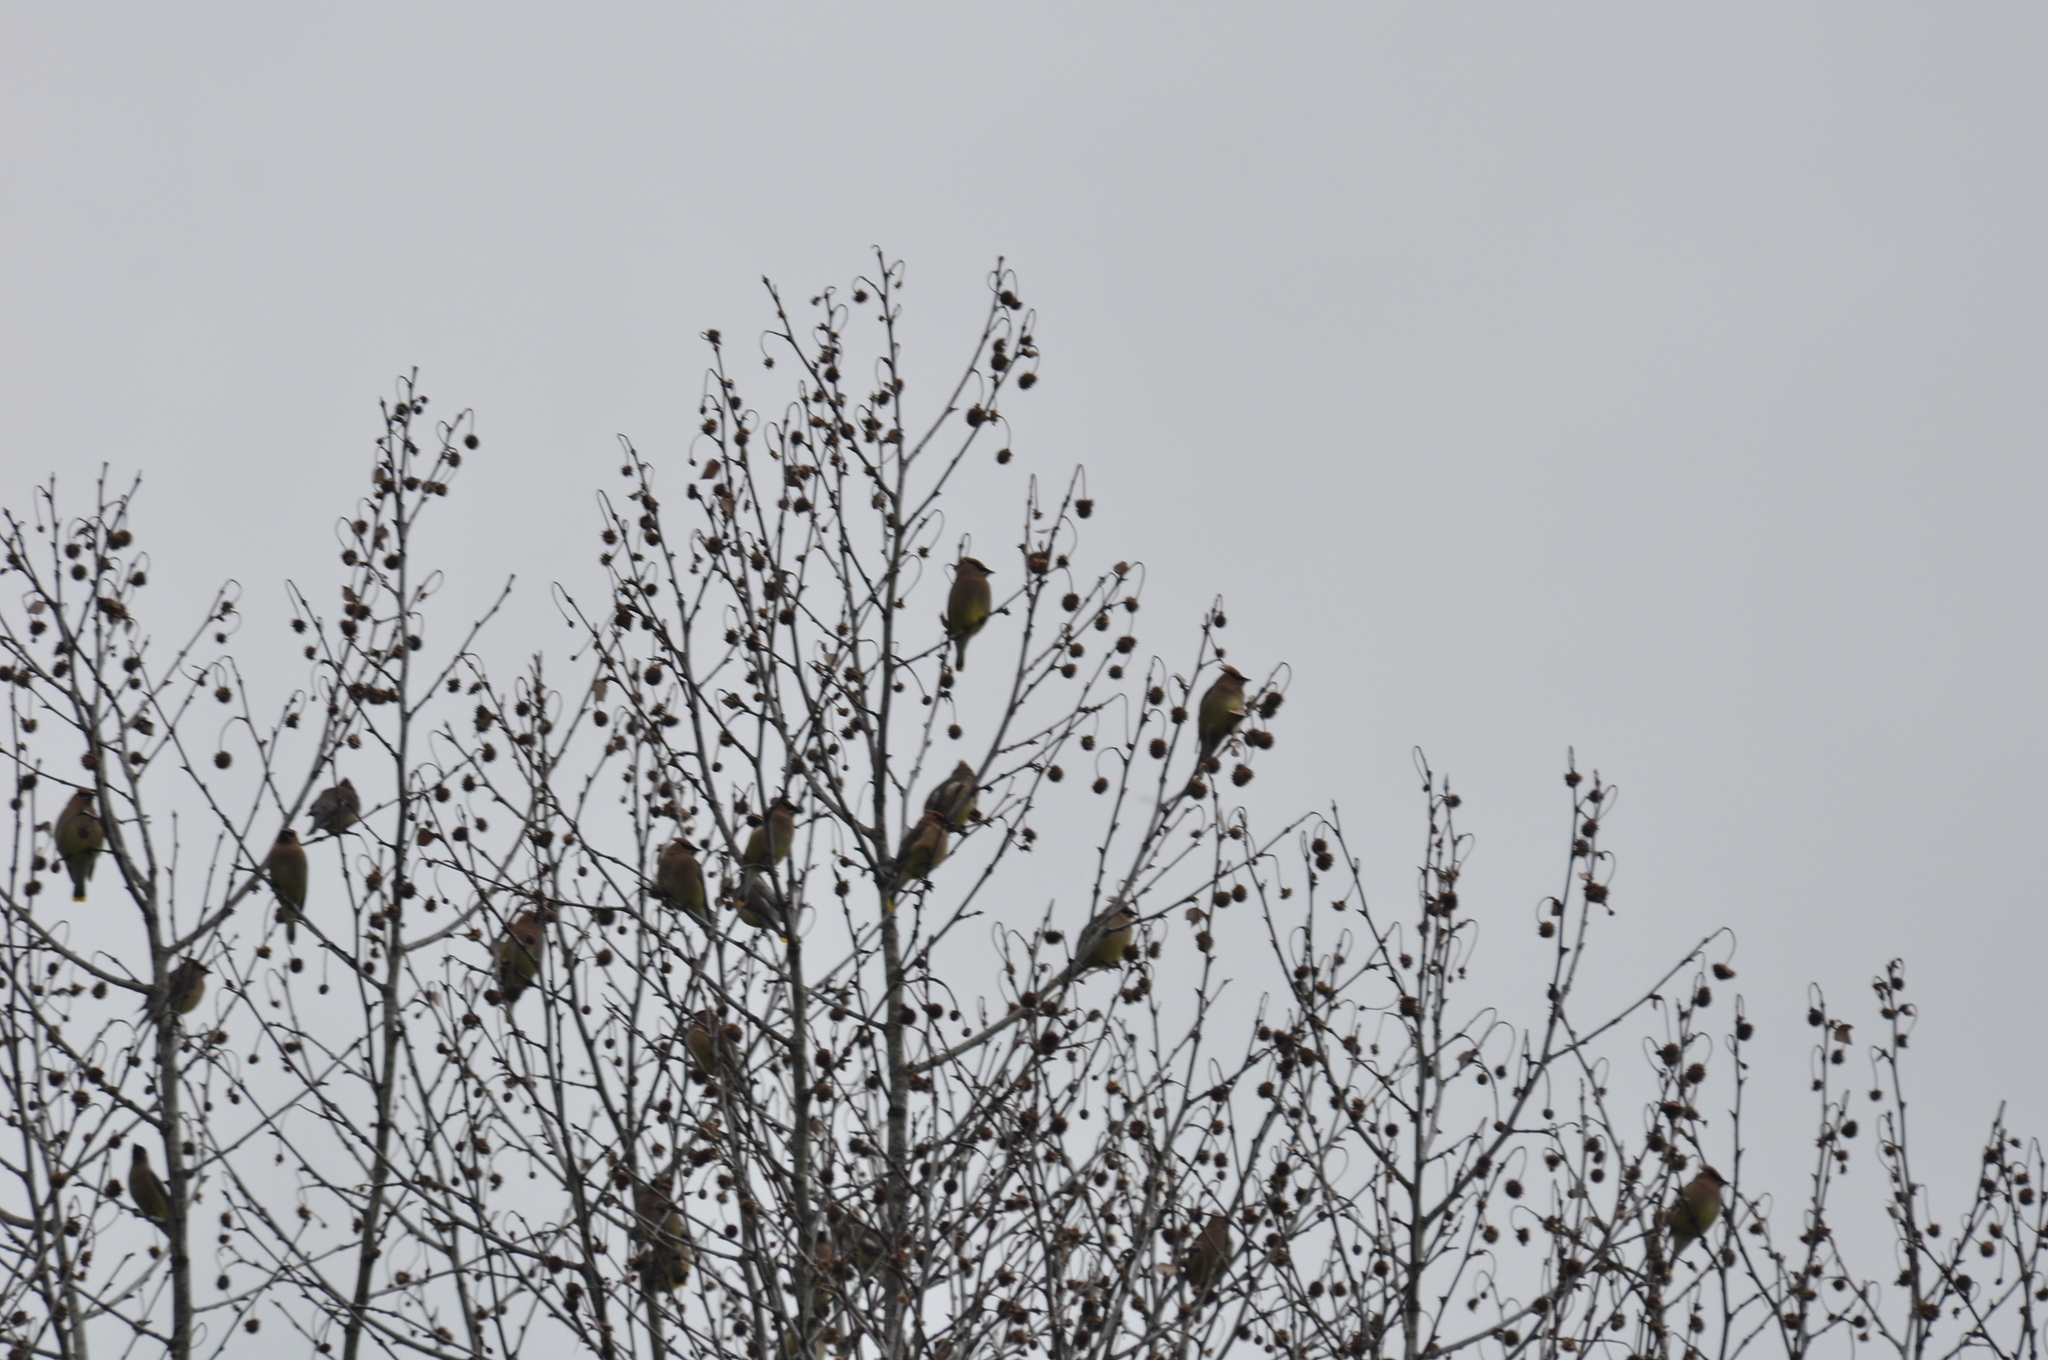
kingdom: Animalia
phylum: Chordata
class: Aves
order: Passeriformes
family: Bombycillidae
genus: Bombycilla
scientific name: Bombycilla cedrorum
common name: Cedar waxwing
